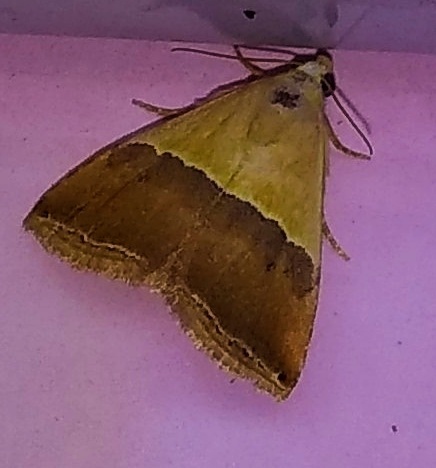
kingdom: Animalia
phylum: Arthropoda
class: Insecta
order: Lepidoptera
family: Noctuidae
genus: Eublemma
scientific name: Eublemma accedens
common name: Moth
